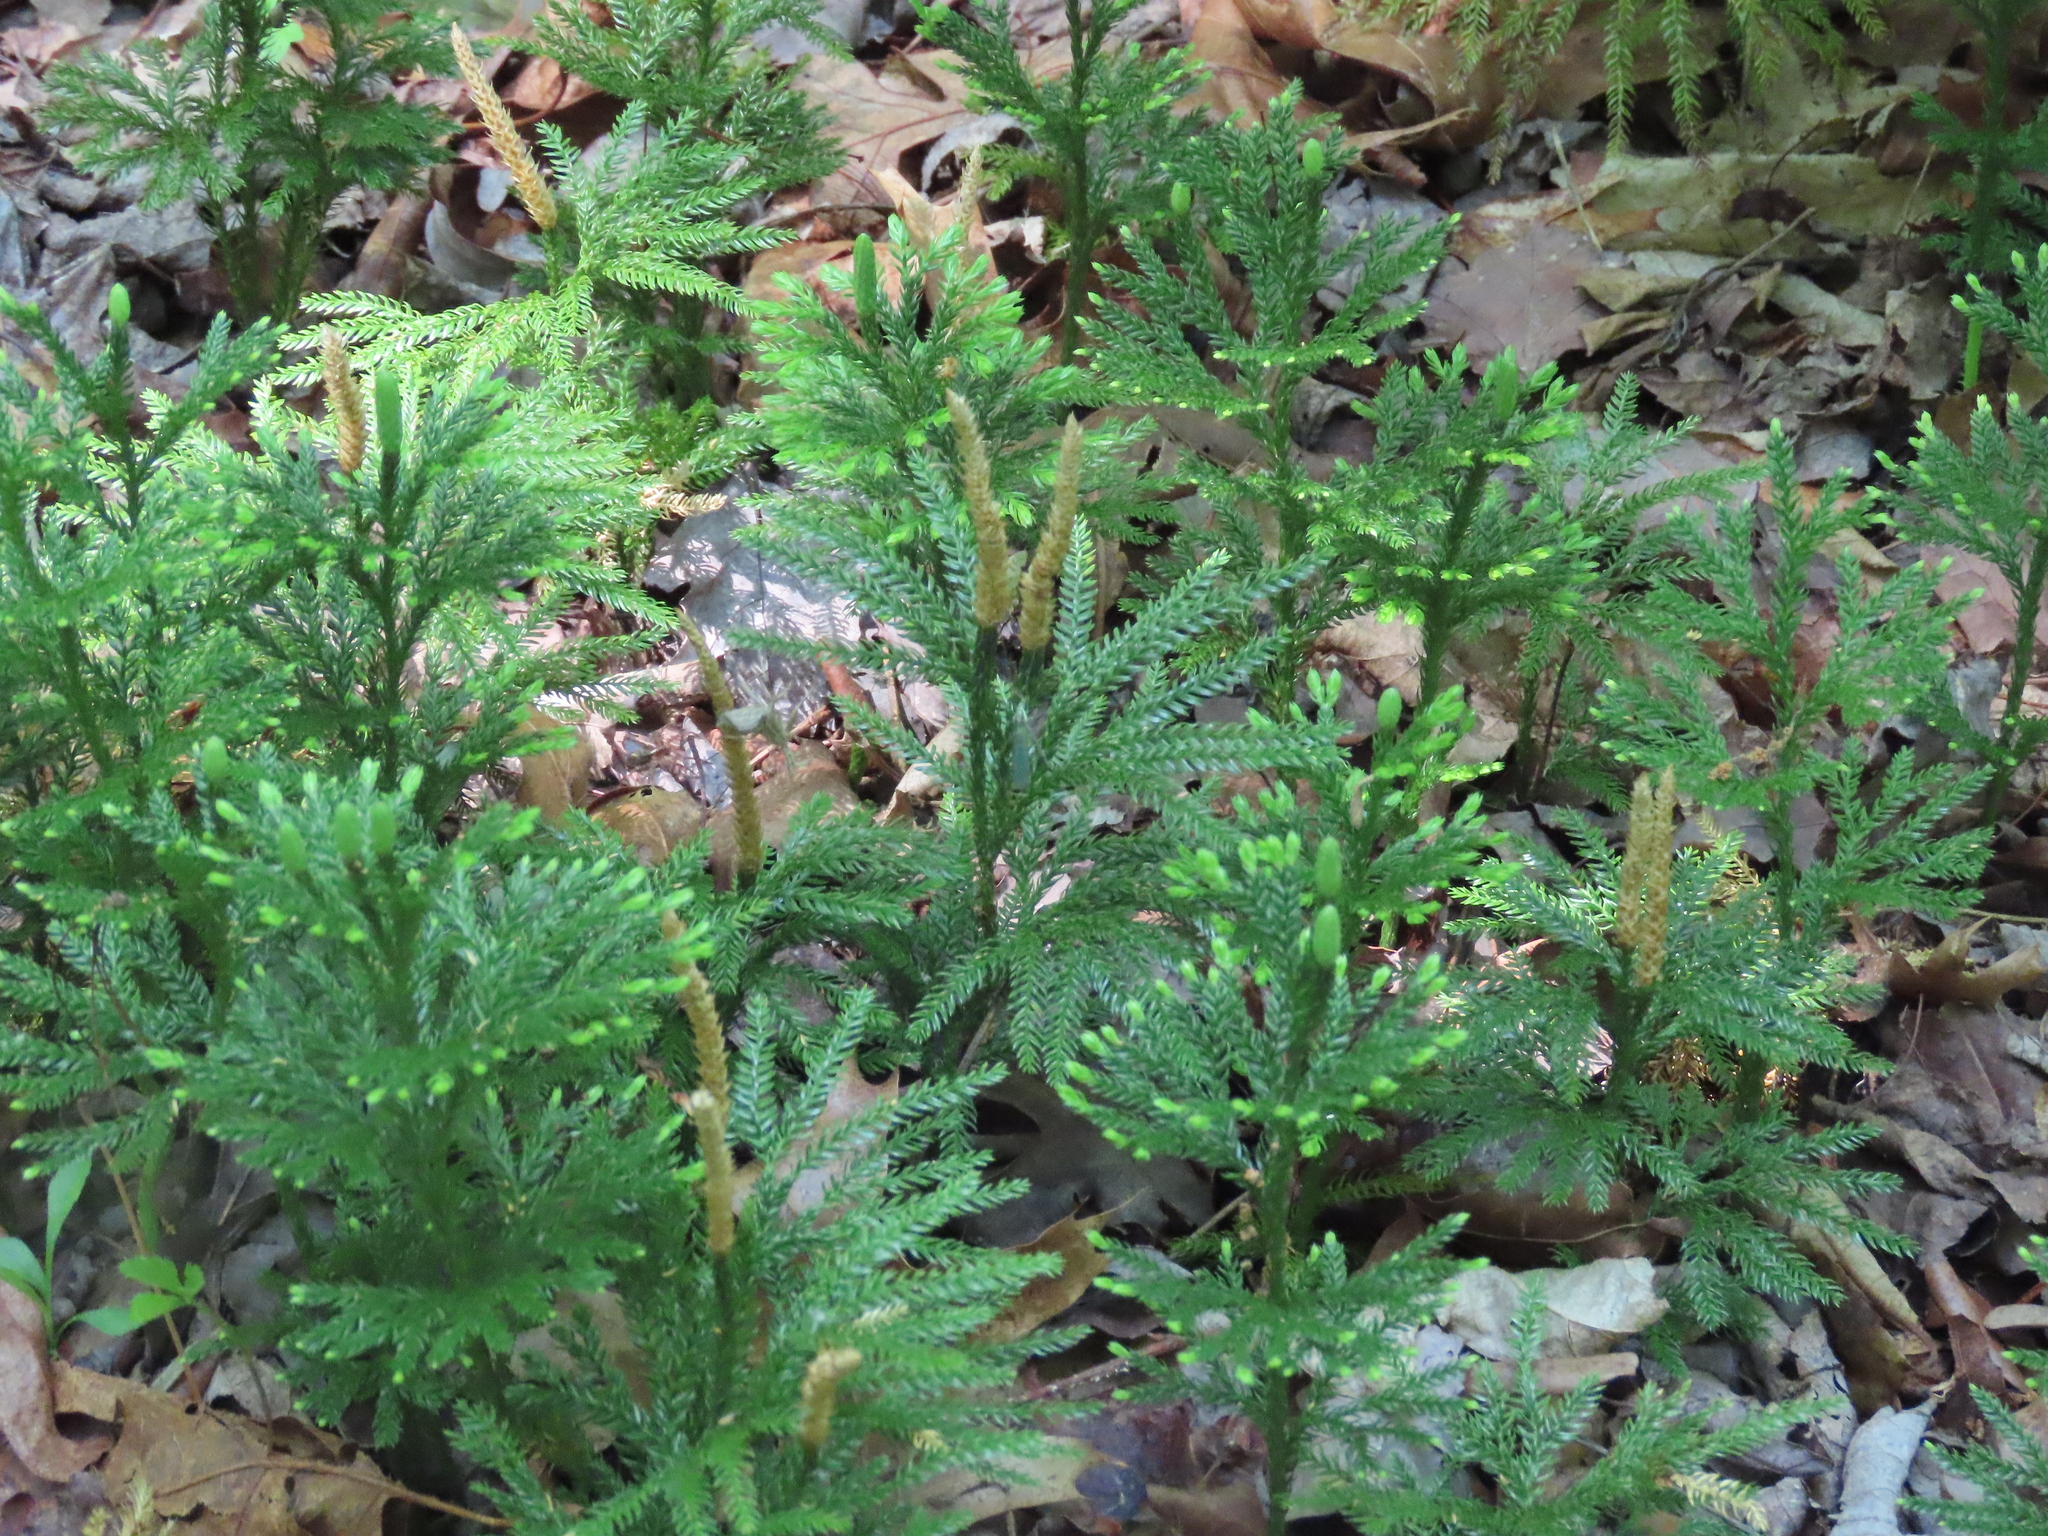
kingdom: Plantae
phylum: Tracheophyta
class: Lycopodiopsida
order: Lycopodiales
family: Lycopodiaceae
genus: Dendrolycopodium
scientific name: Dendrolycopodium obscurum
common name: Common ground-pine
